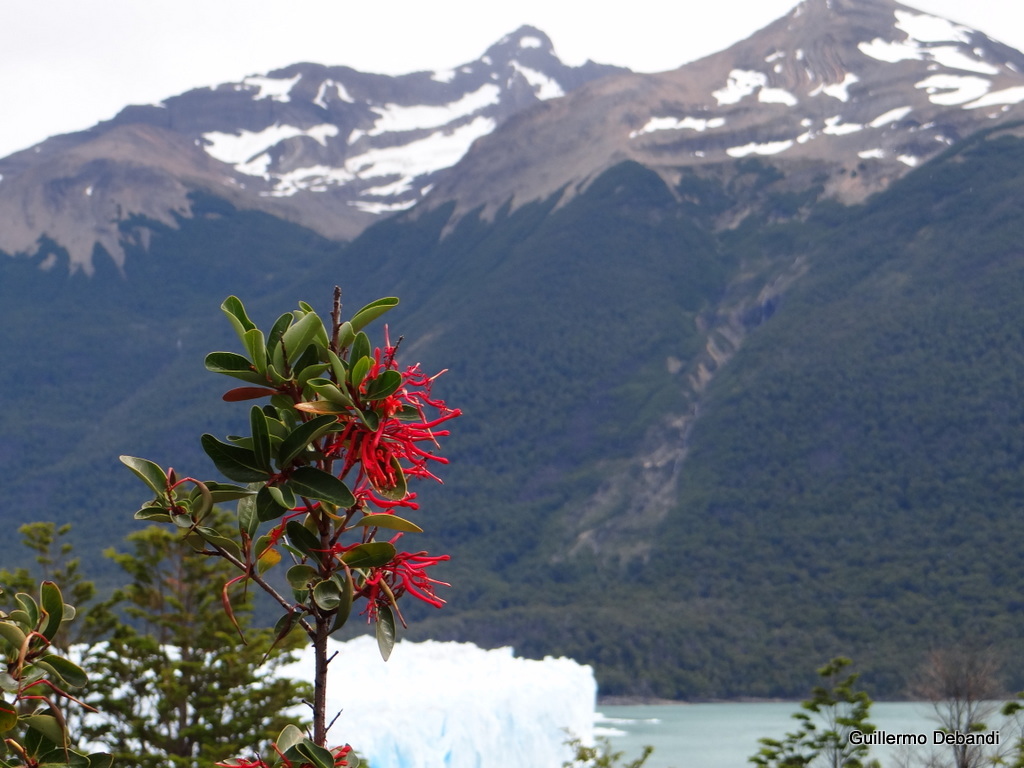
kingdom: Plantae
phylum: Tracheophyta
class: Magnoliopsida
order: Proteales
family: Proteaceae
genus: Embothrium
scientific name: Embothrium coccineum
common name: Chilean firebush
